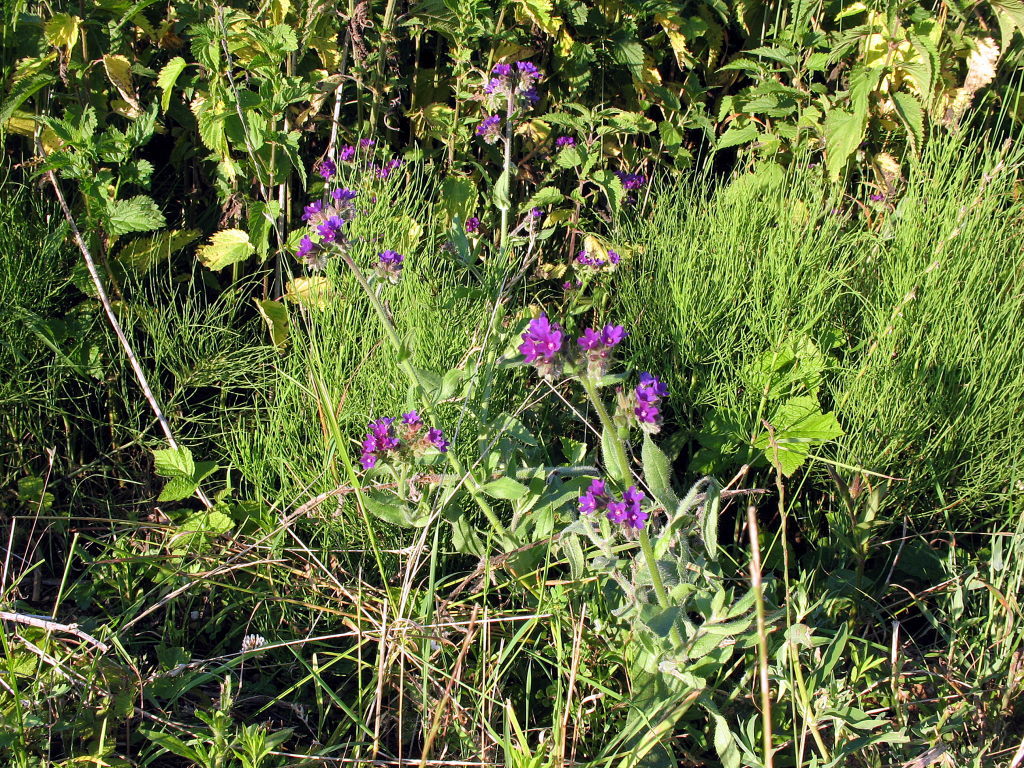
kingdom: Plantae
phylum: Tracheophyta
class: Magnoliopsida
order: Boraginales
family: Boraginaceae
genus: Anchusa
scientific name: Anchusa officinalis
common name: Alkanet
